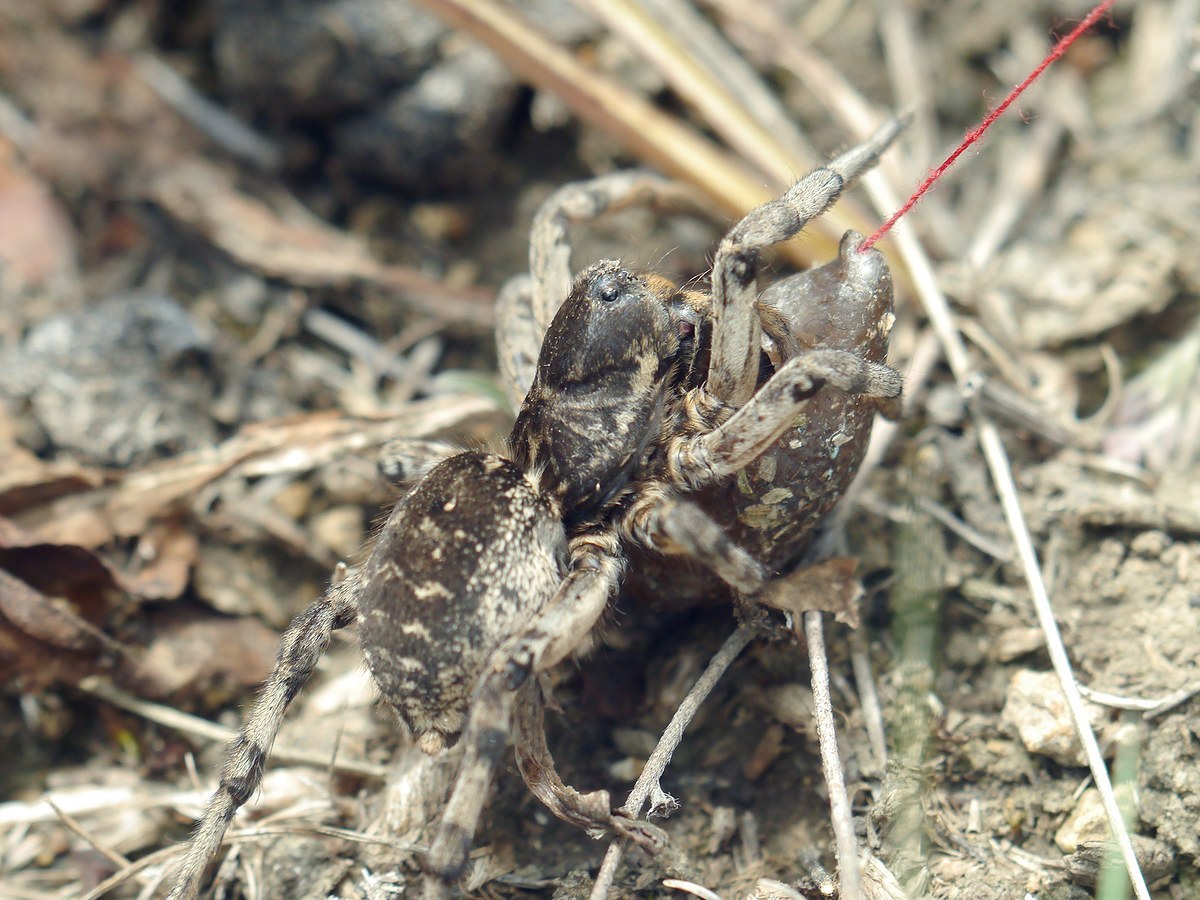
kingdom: Animalia
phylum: Arthropoda
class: Arachnida
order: Araneae
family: Lycosidae
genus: Geolycosa
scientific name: Geolycosa vultuosa
